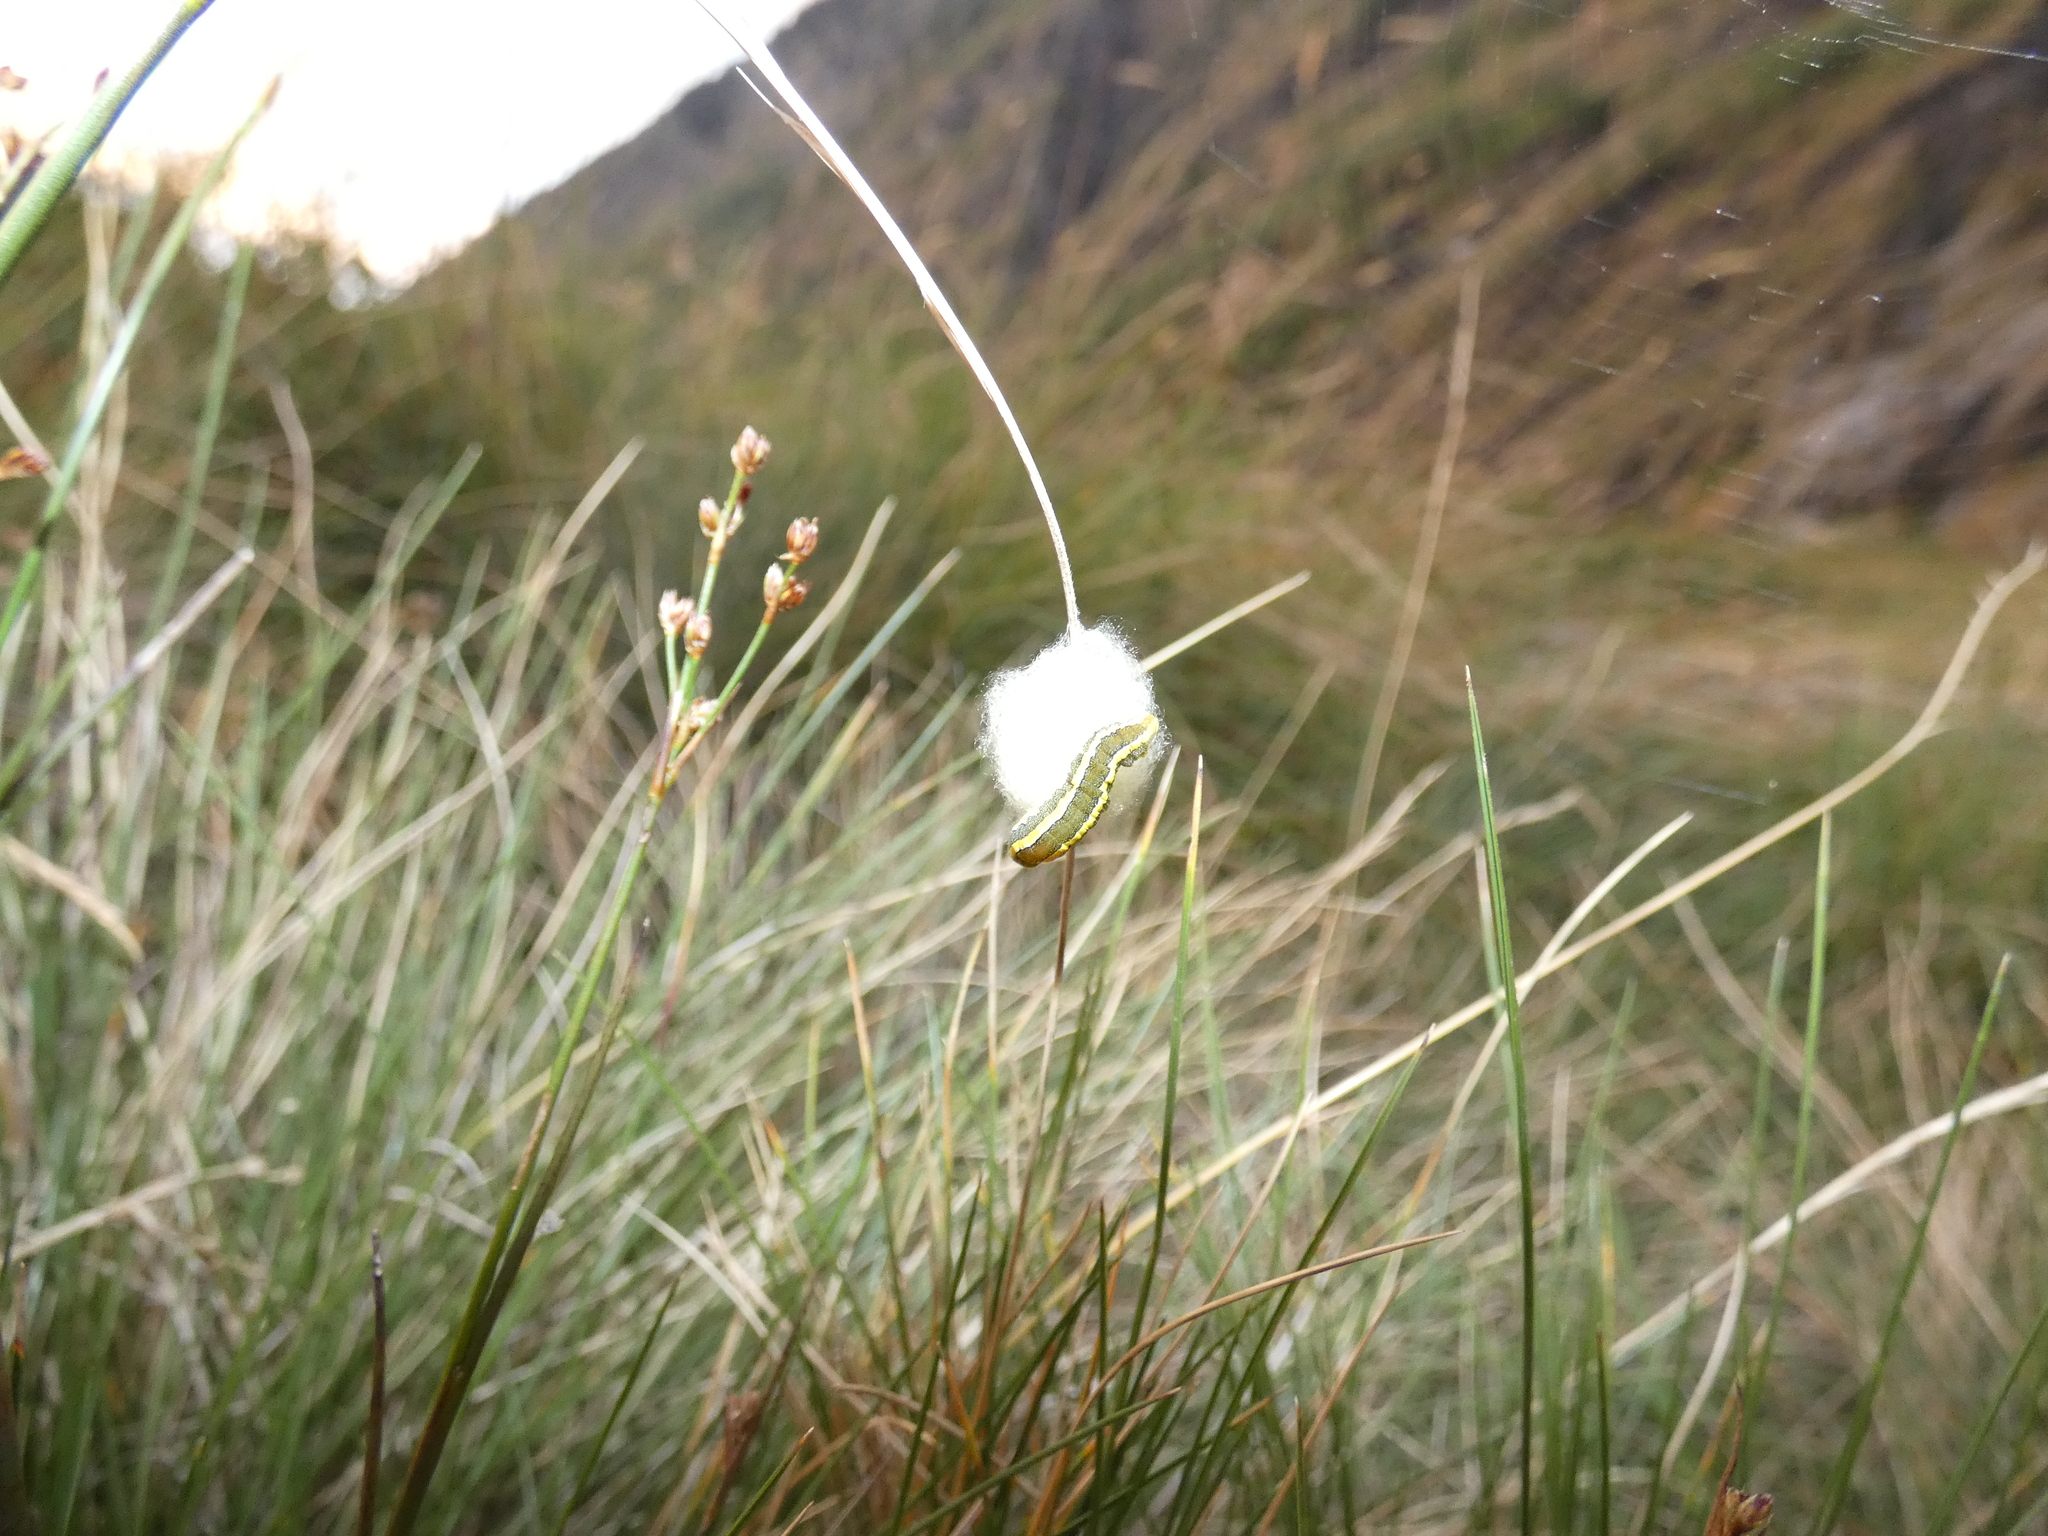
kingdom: Animalia
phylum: Arthropoda
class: Insecta
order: Lepidoptera
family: Noctuidae
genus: Ceramica
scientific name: Ceramica pisi
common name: Broom moth
